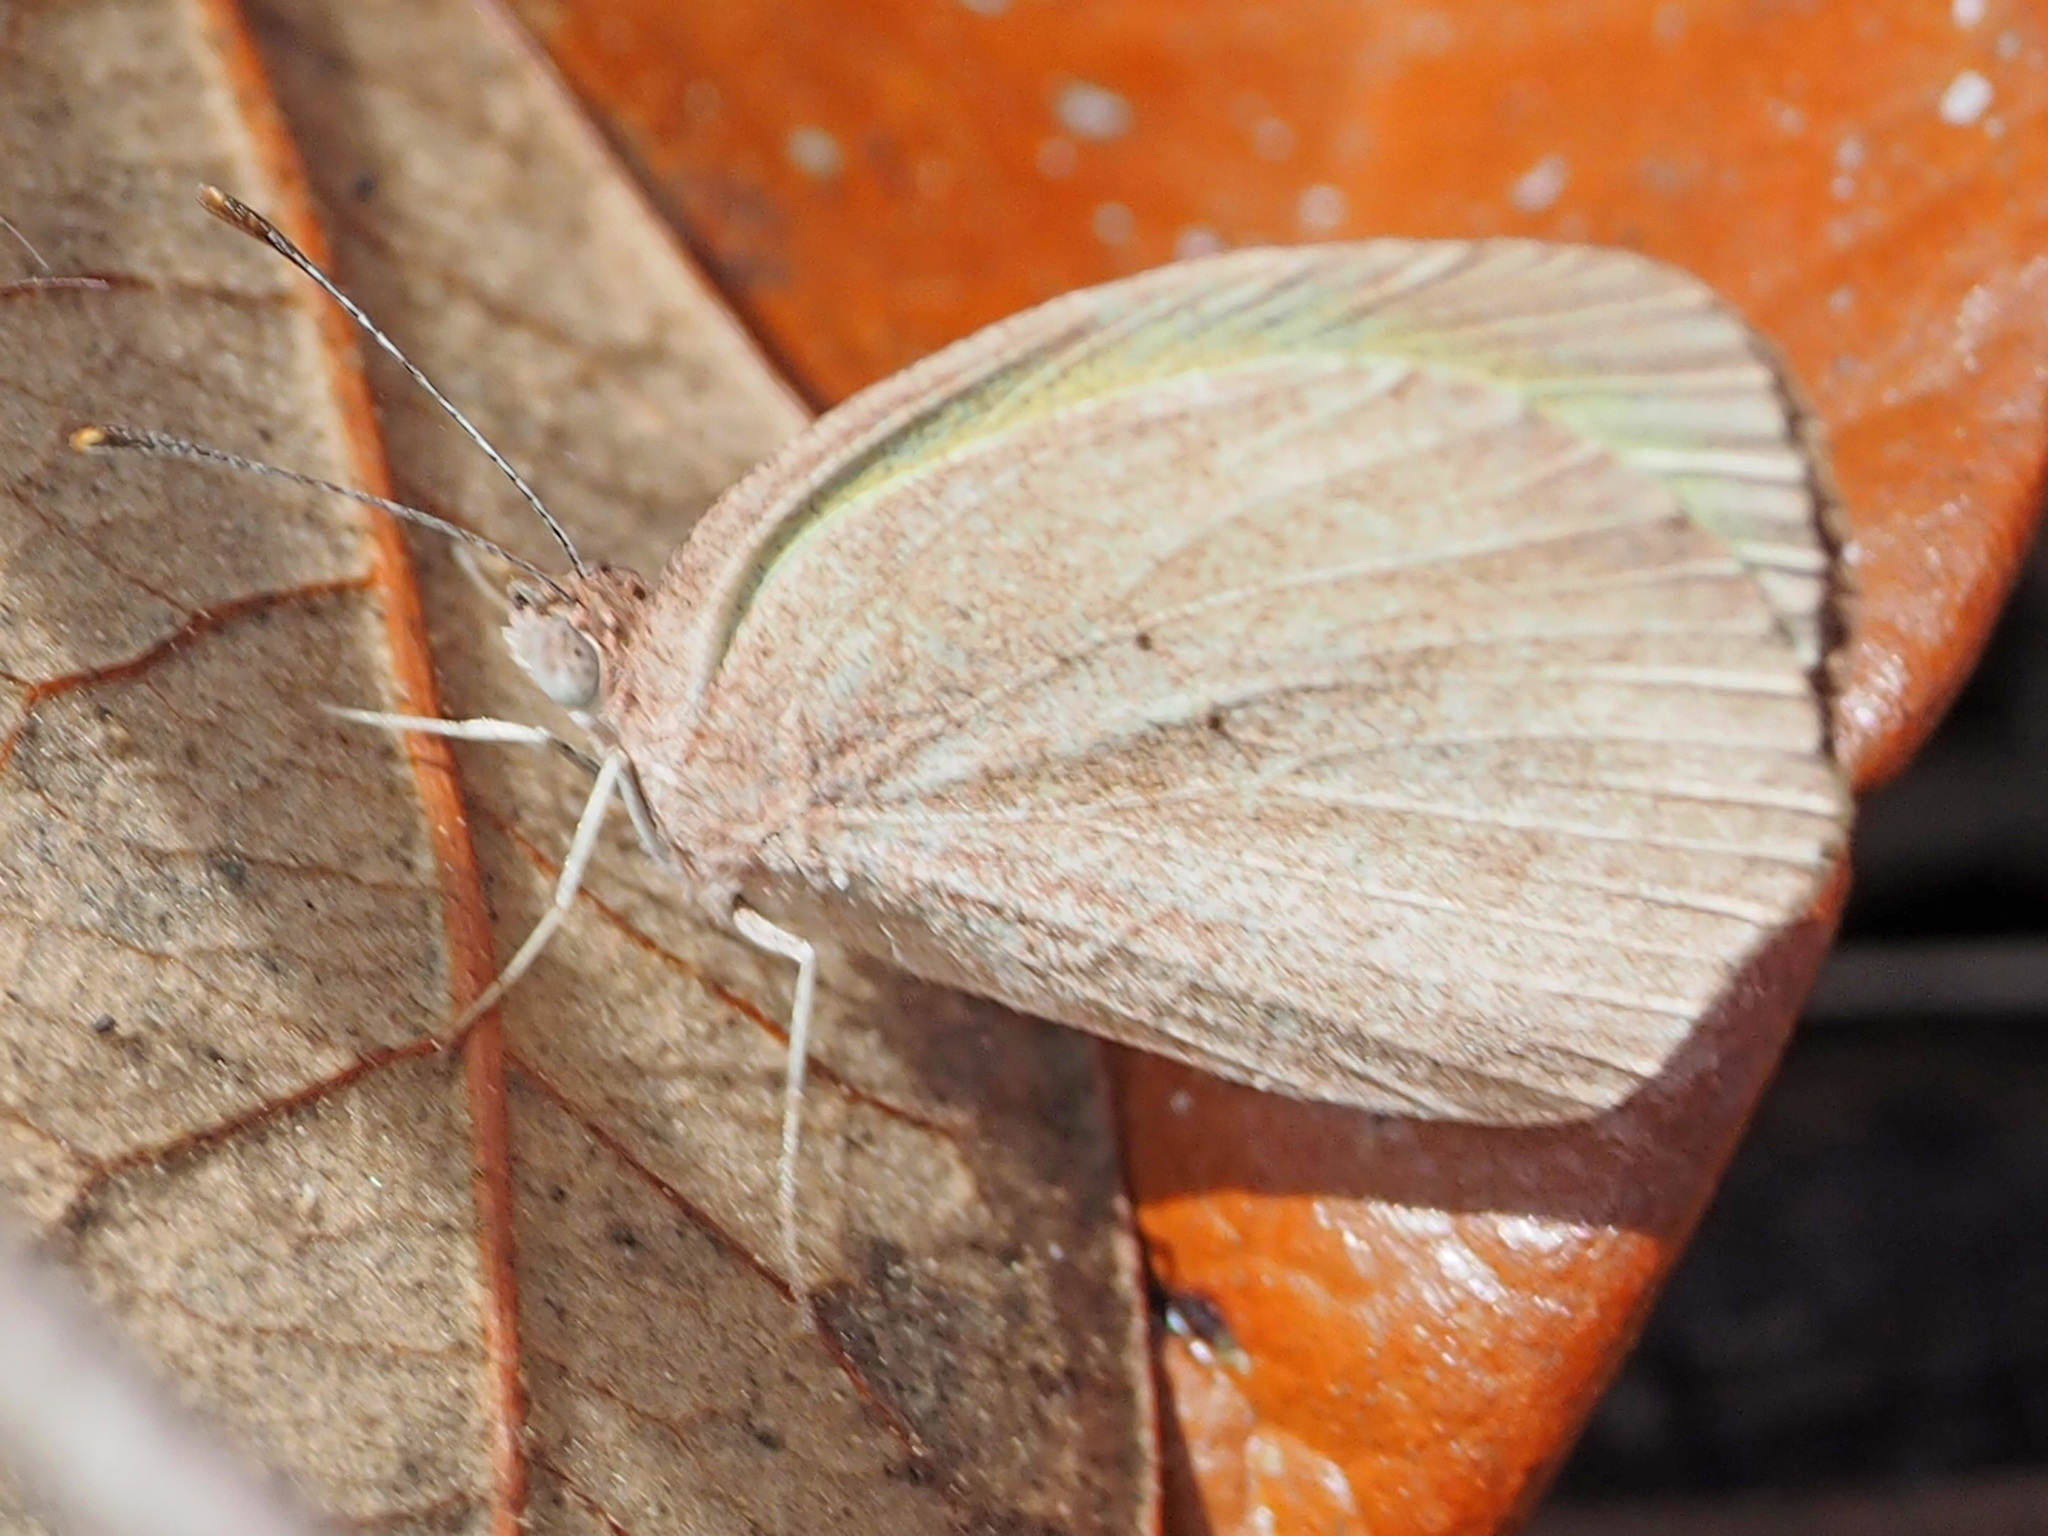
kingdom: Animalia
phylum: Arthropoda
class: Insecta
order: Lepidoptera
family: Pieridae
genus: Eurema
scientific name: Eurema daira
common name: Barred sulphur
